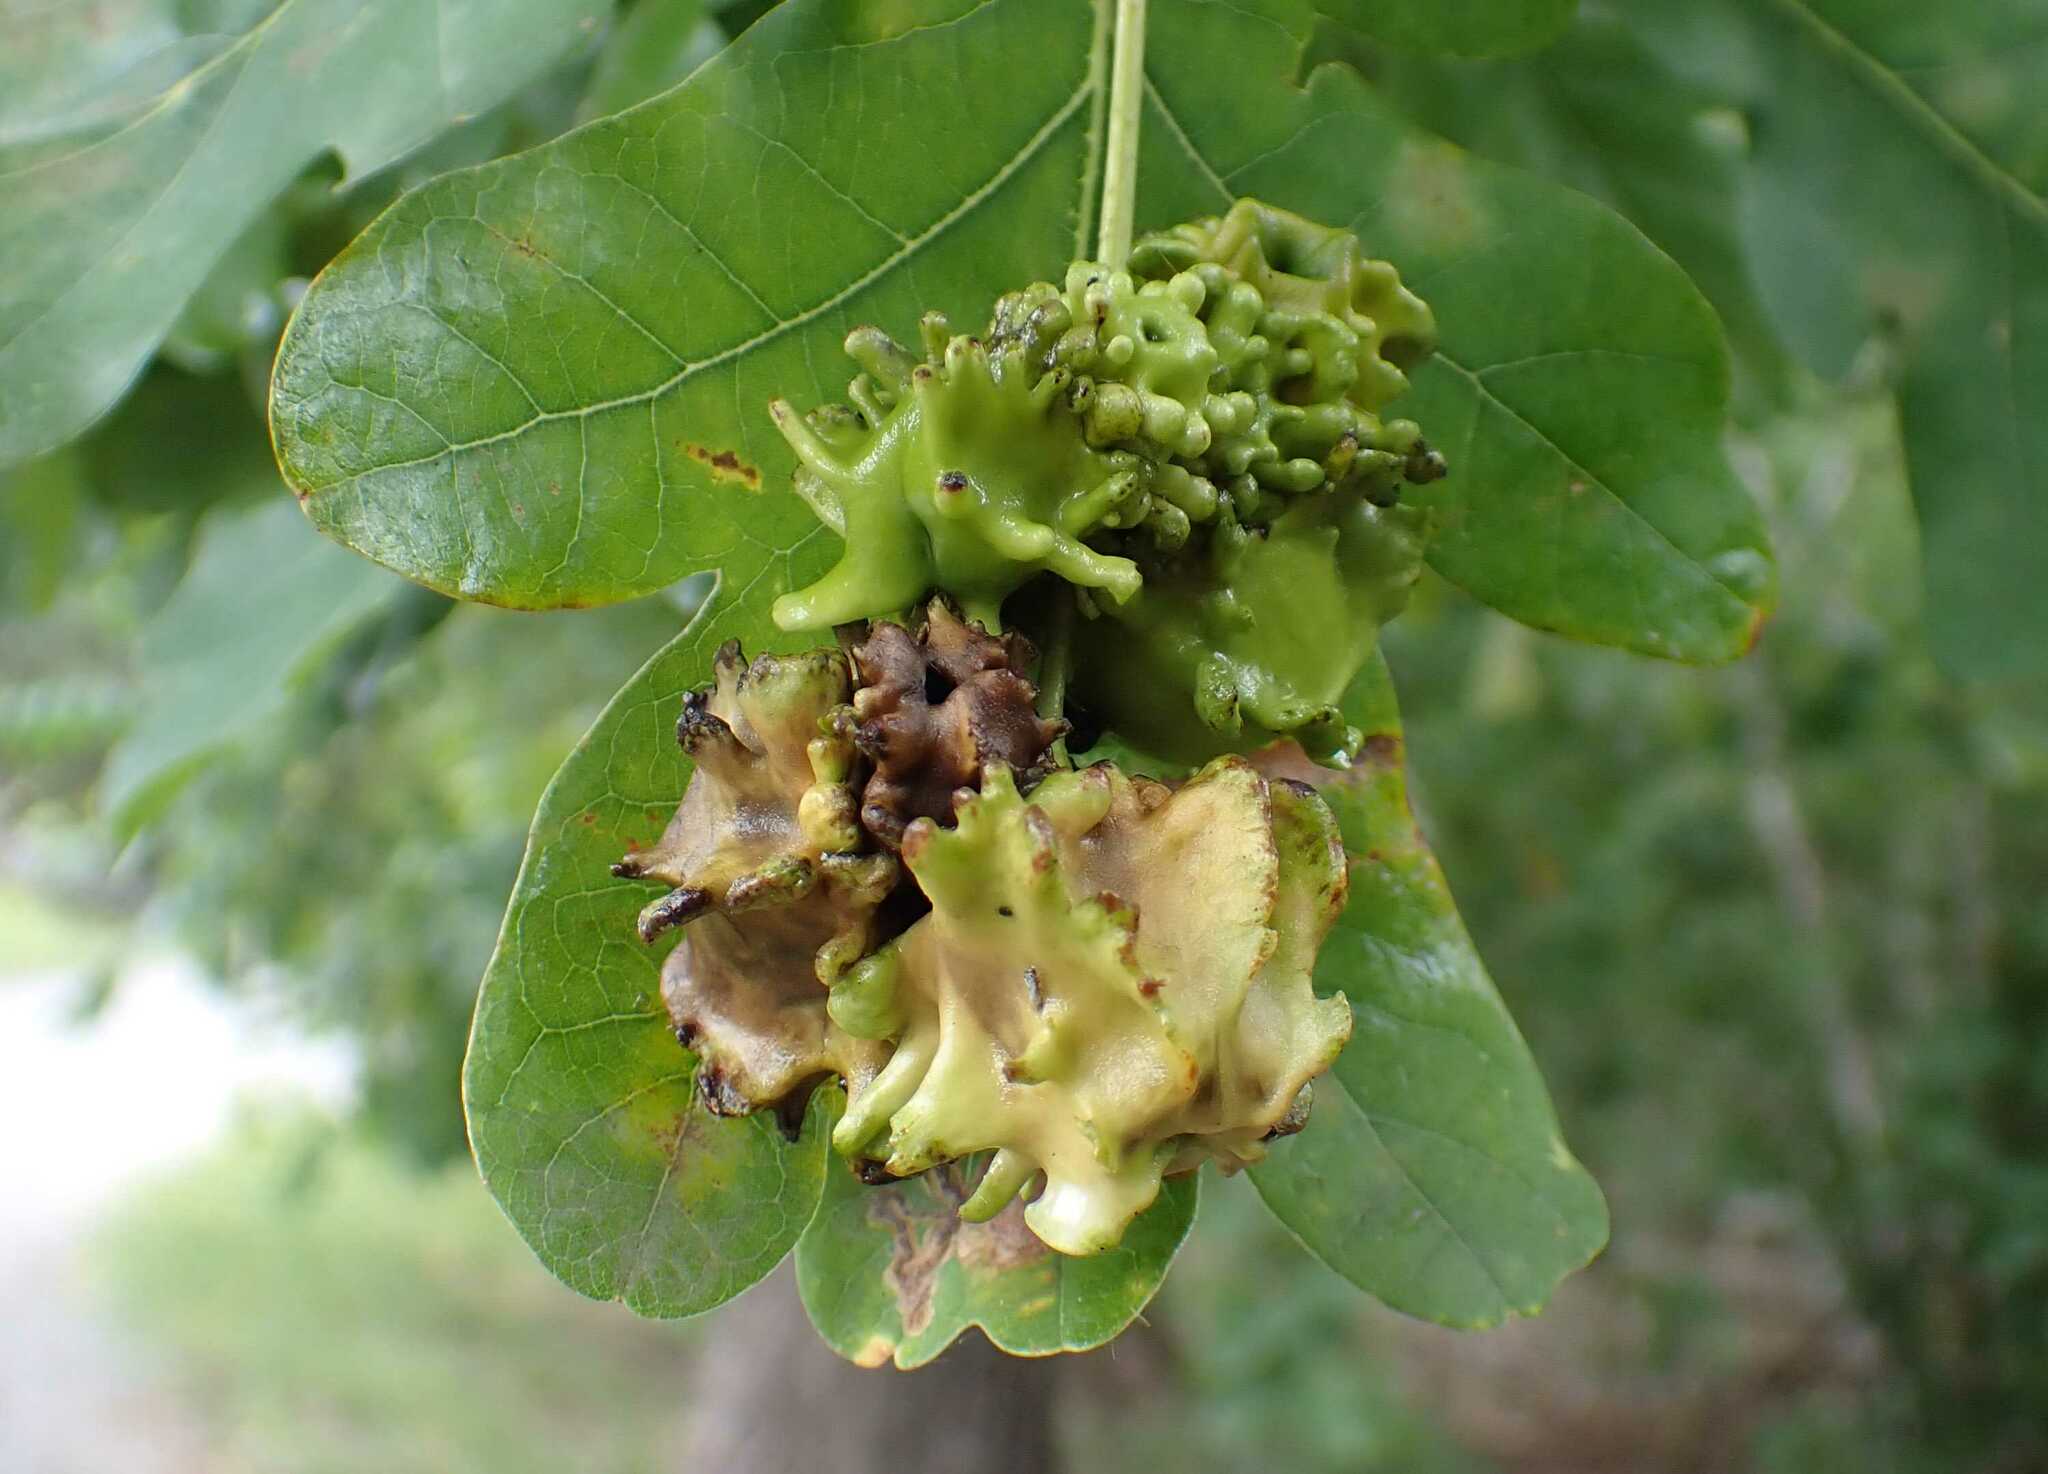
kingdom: Animalia
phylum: Arthropoda
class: Insecta
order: Hymenoptera
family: Cynipidae
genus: Andricus
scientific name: Andricus quercuscalicis
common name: Knopper gall
